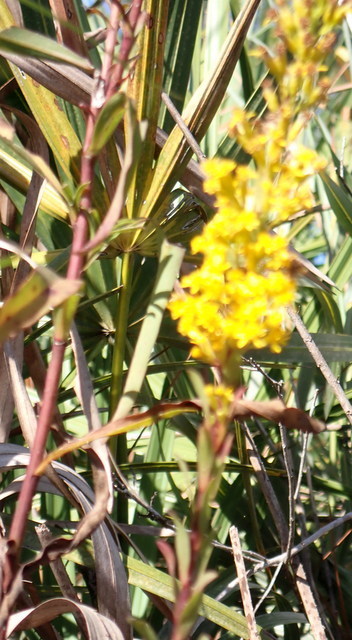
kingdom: Plantae
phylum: Tracheophyta
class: Magnoliopsida
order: Asterales
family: Asteraceae
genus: Solidago
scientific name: Solidago virgata
